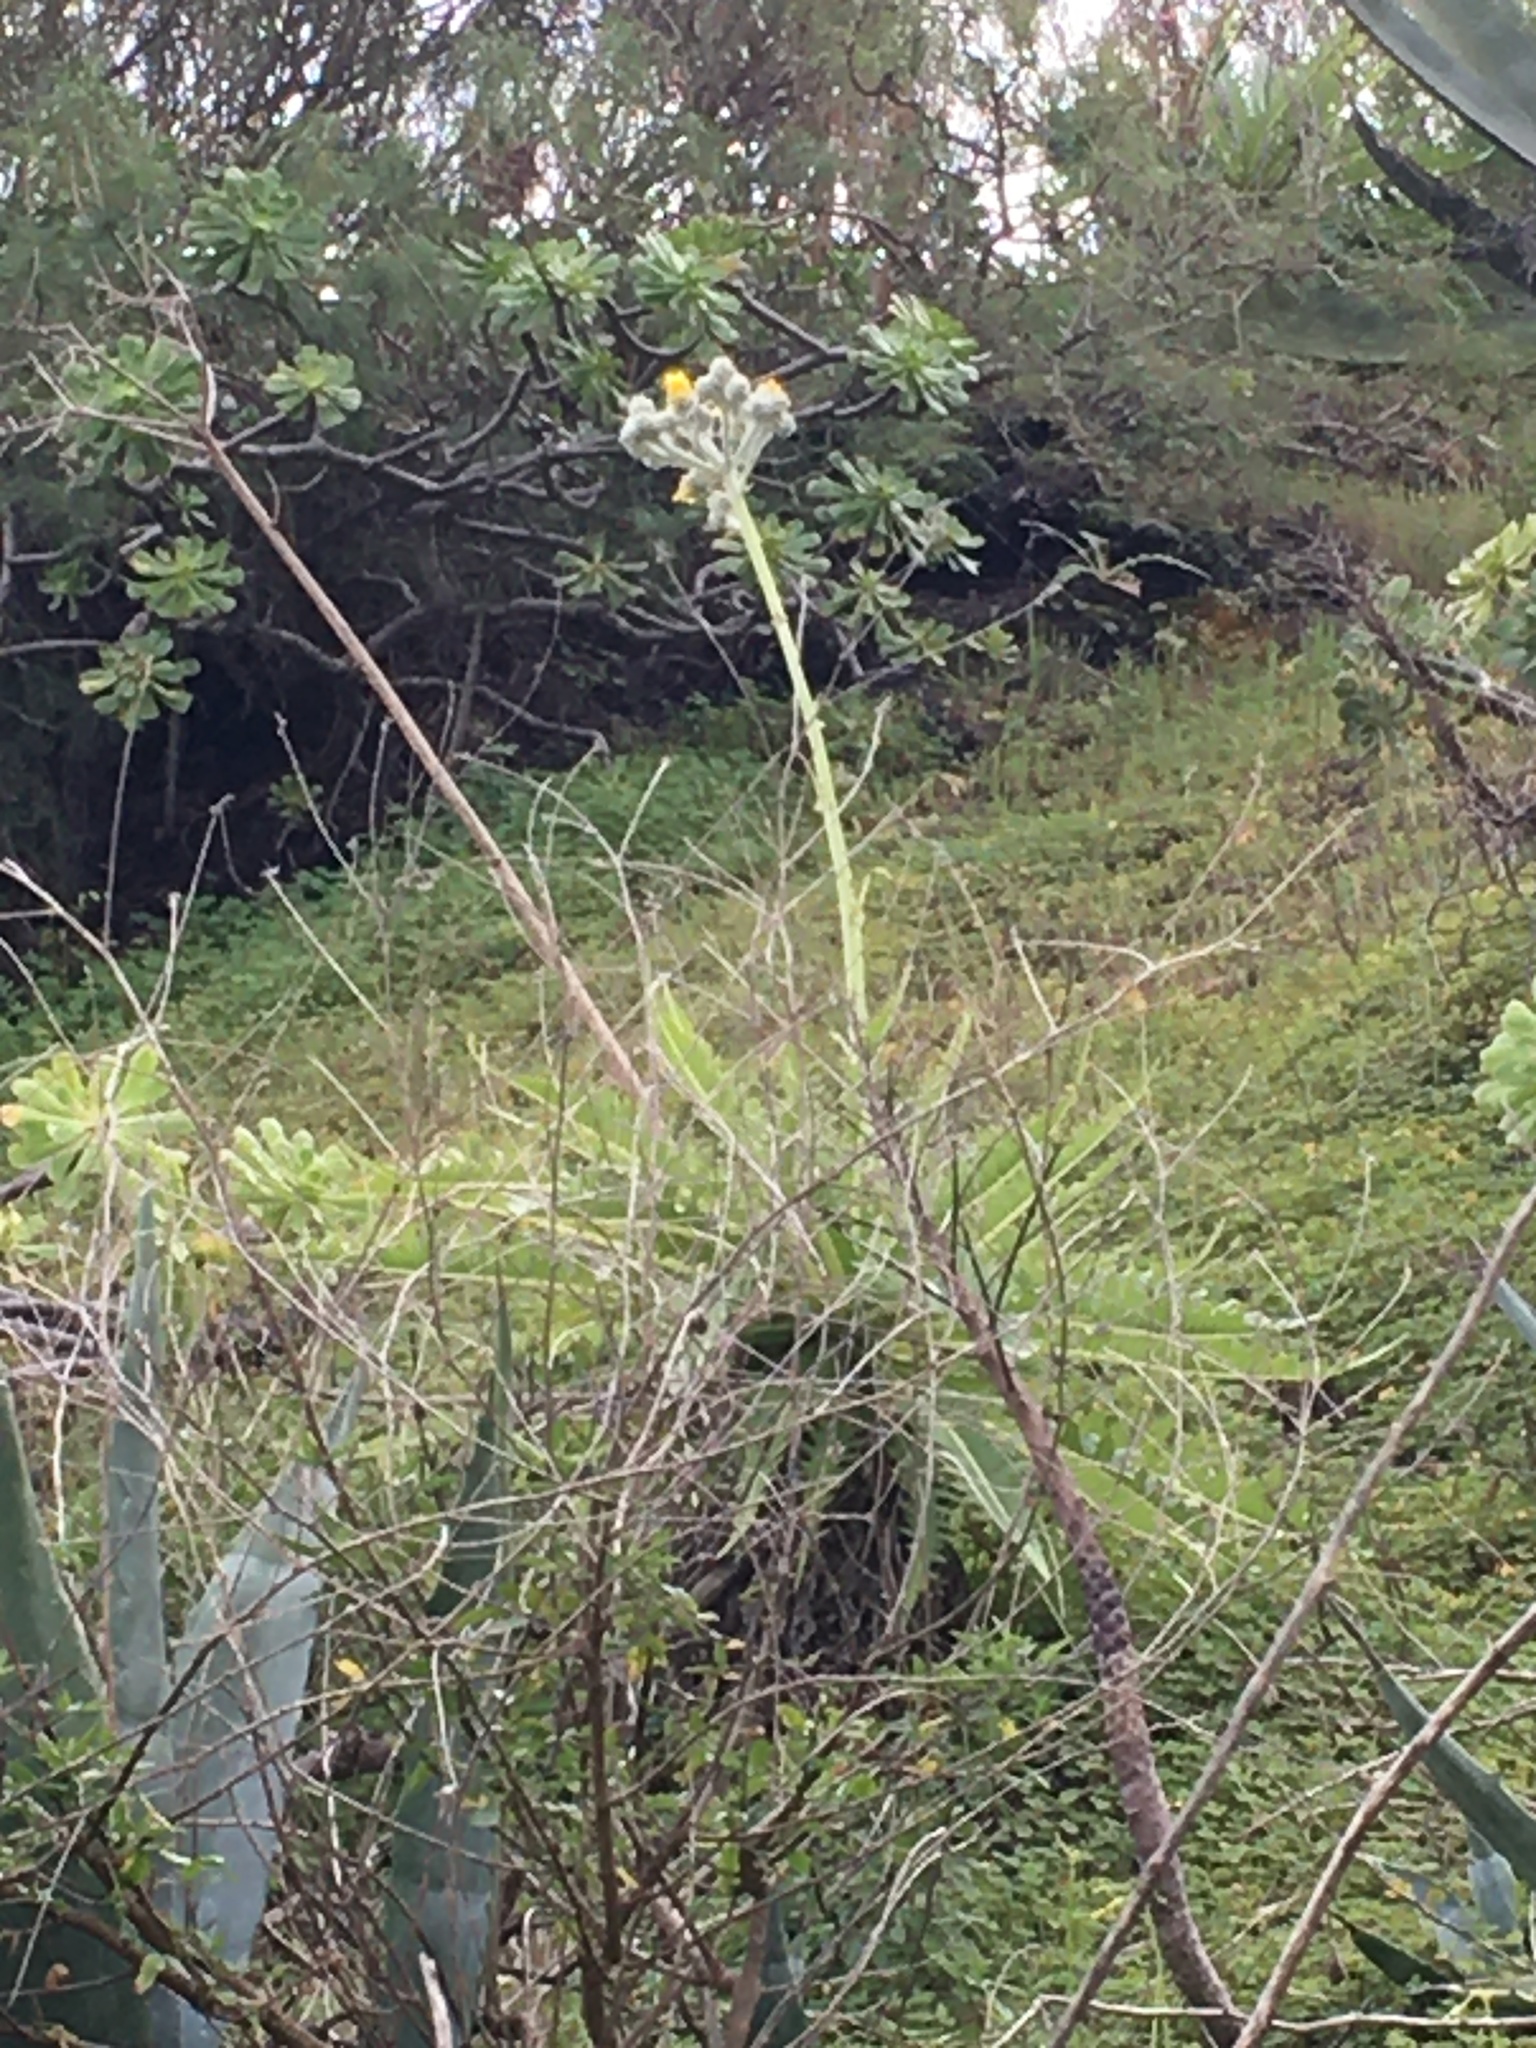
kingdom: Plantae
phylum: Tracheophyta
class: Magnoliopsida
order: Asterales
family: Asteraceae
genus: Sonchus
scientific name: Sonchus acaulis
